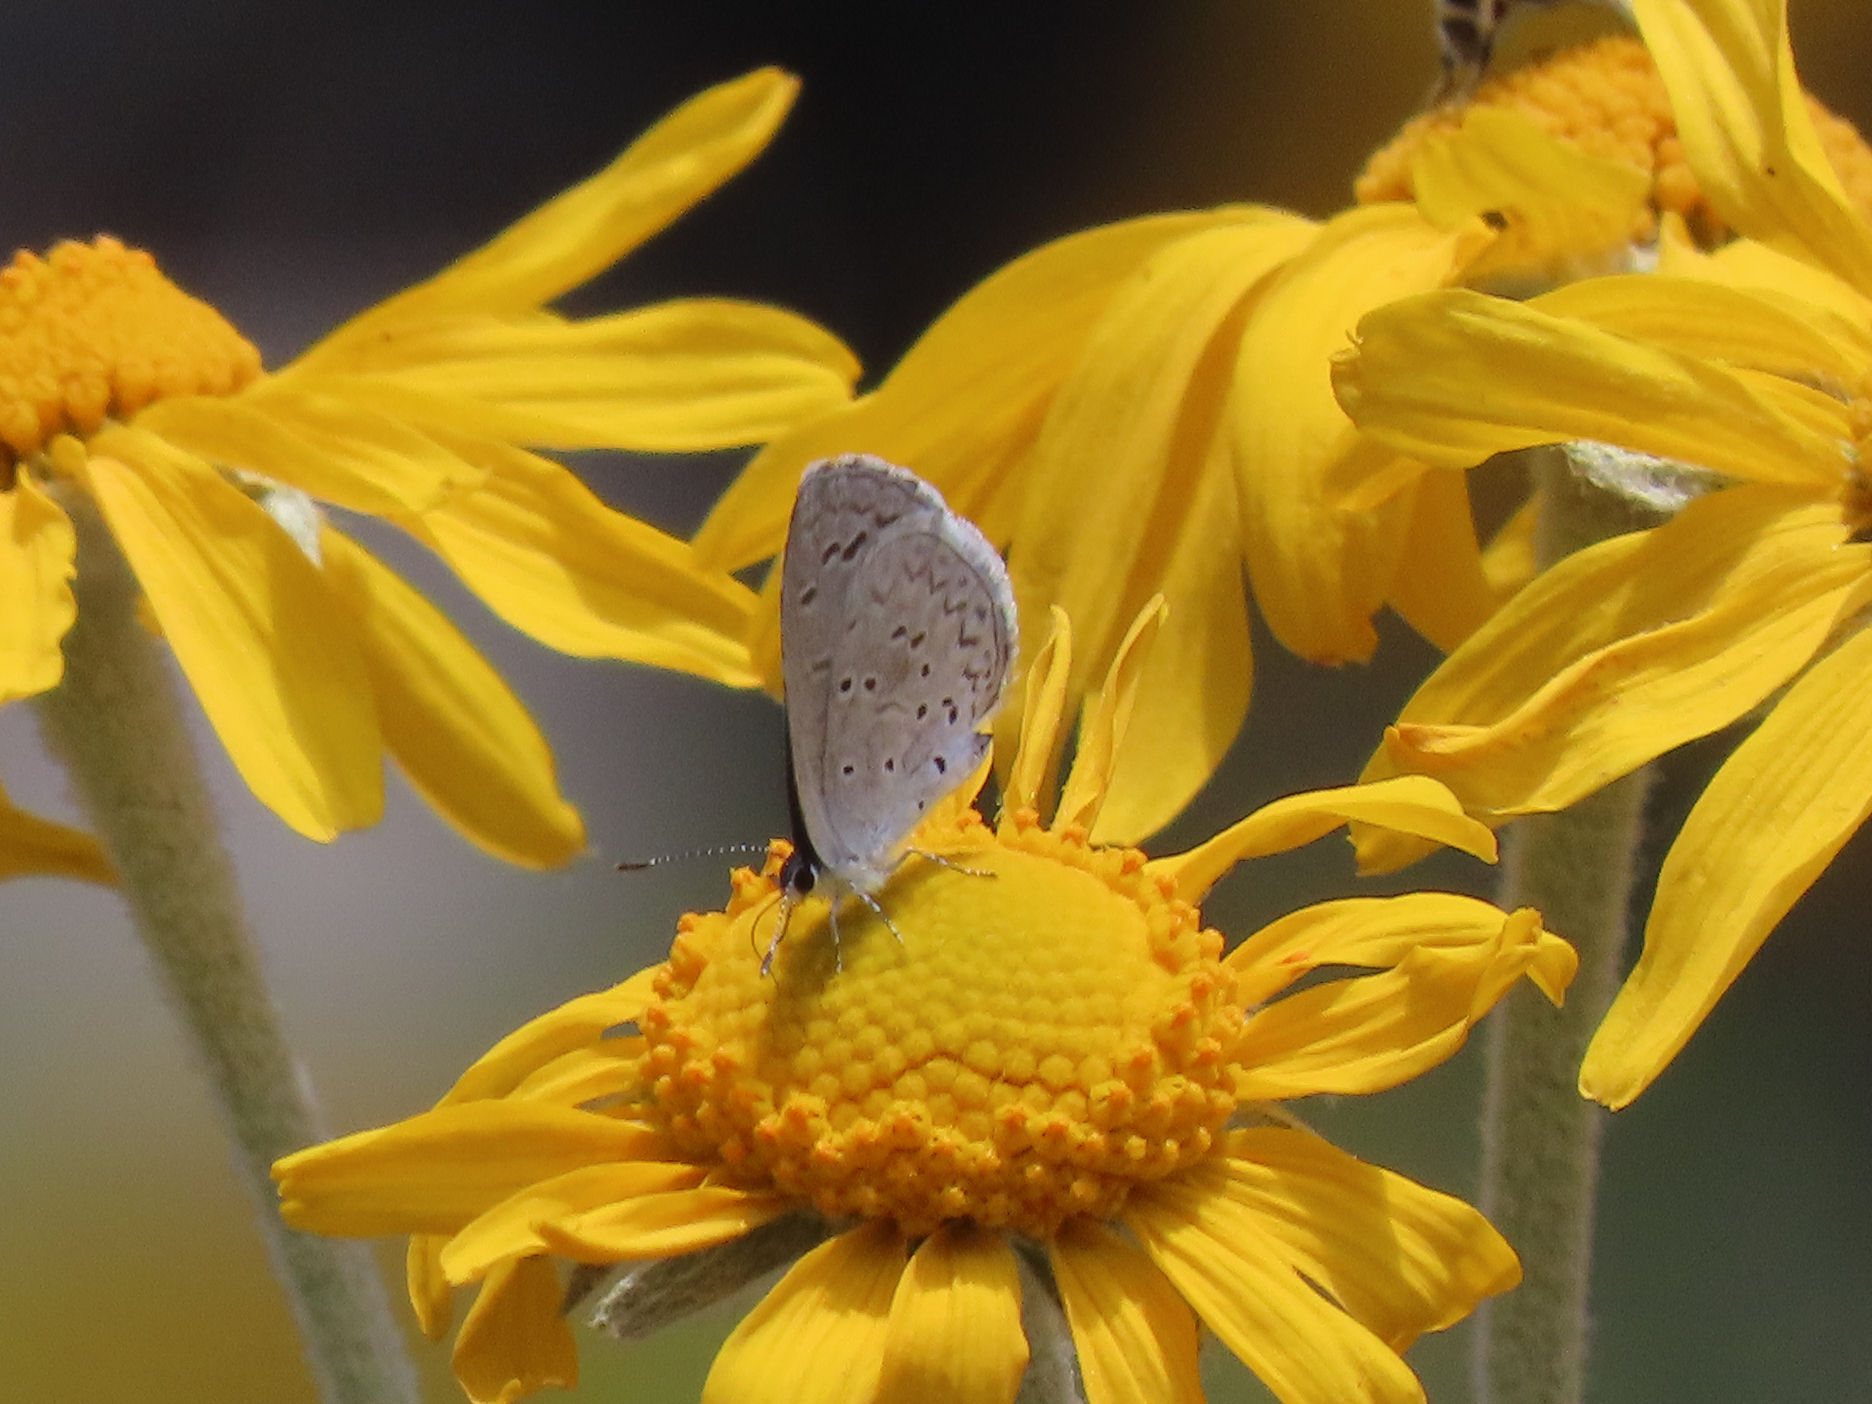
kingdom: Animalia
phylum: Arthropoda
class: Insecta
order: Lepidoptera
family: Lycaenidae
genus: Celastrina
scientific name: Celastrina ladon
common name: Spring azure
